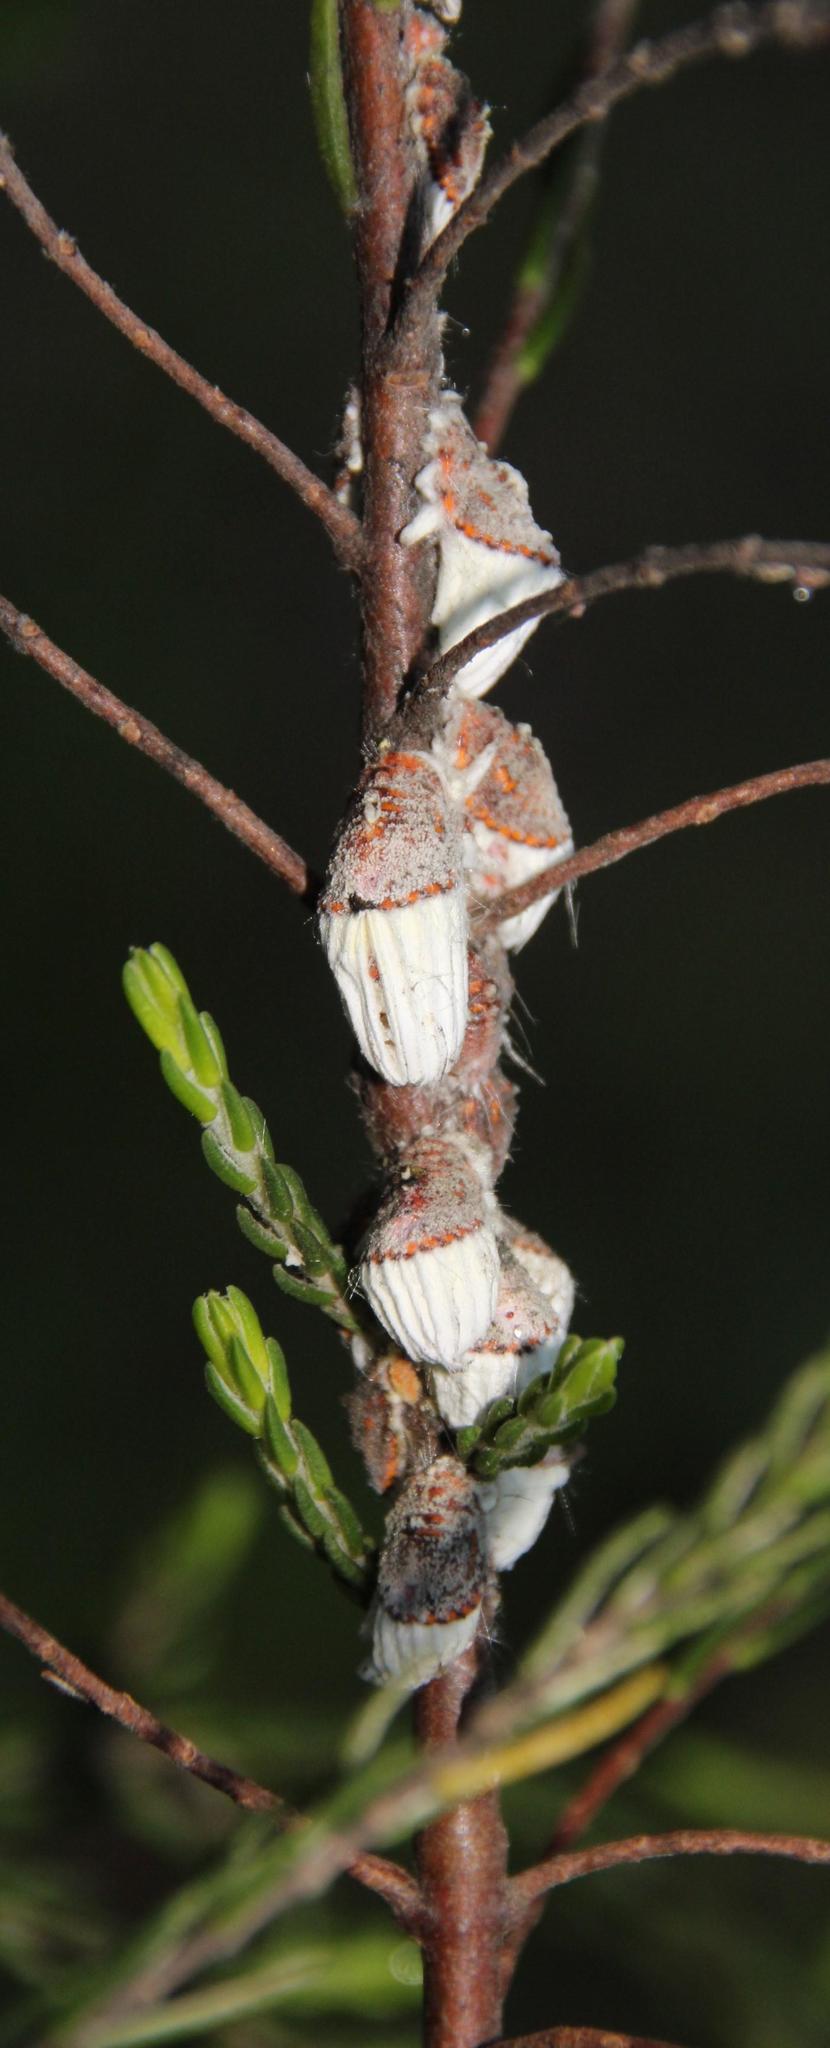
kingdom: Animalia
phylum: Arthropoda
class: Insecta
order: Hemiptera
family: Margarodidae
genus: Icerya
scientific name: Icerya purchasi
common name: Cottony cushion scale
